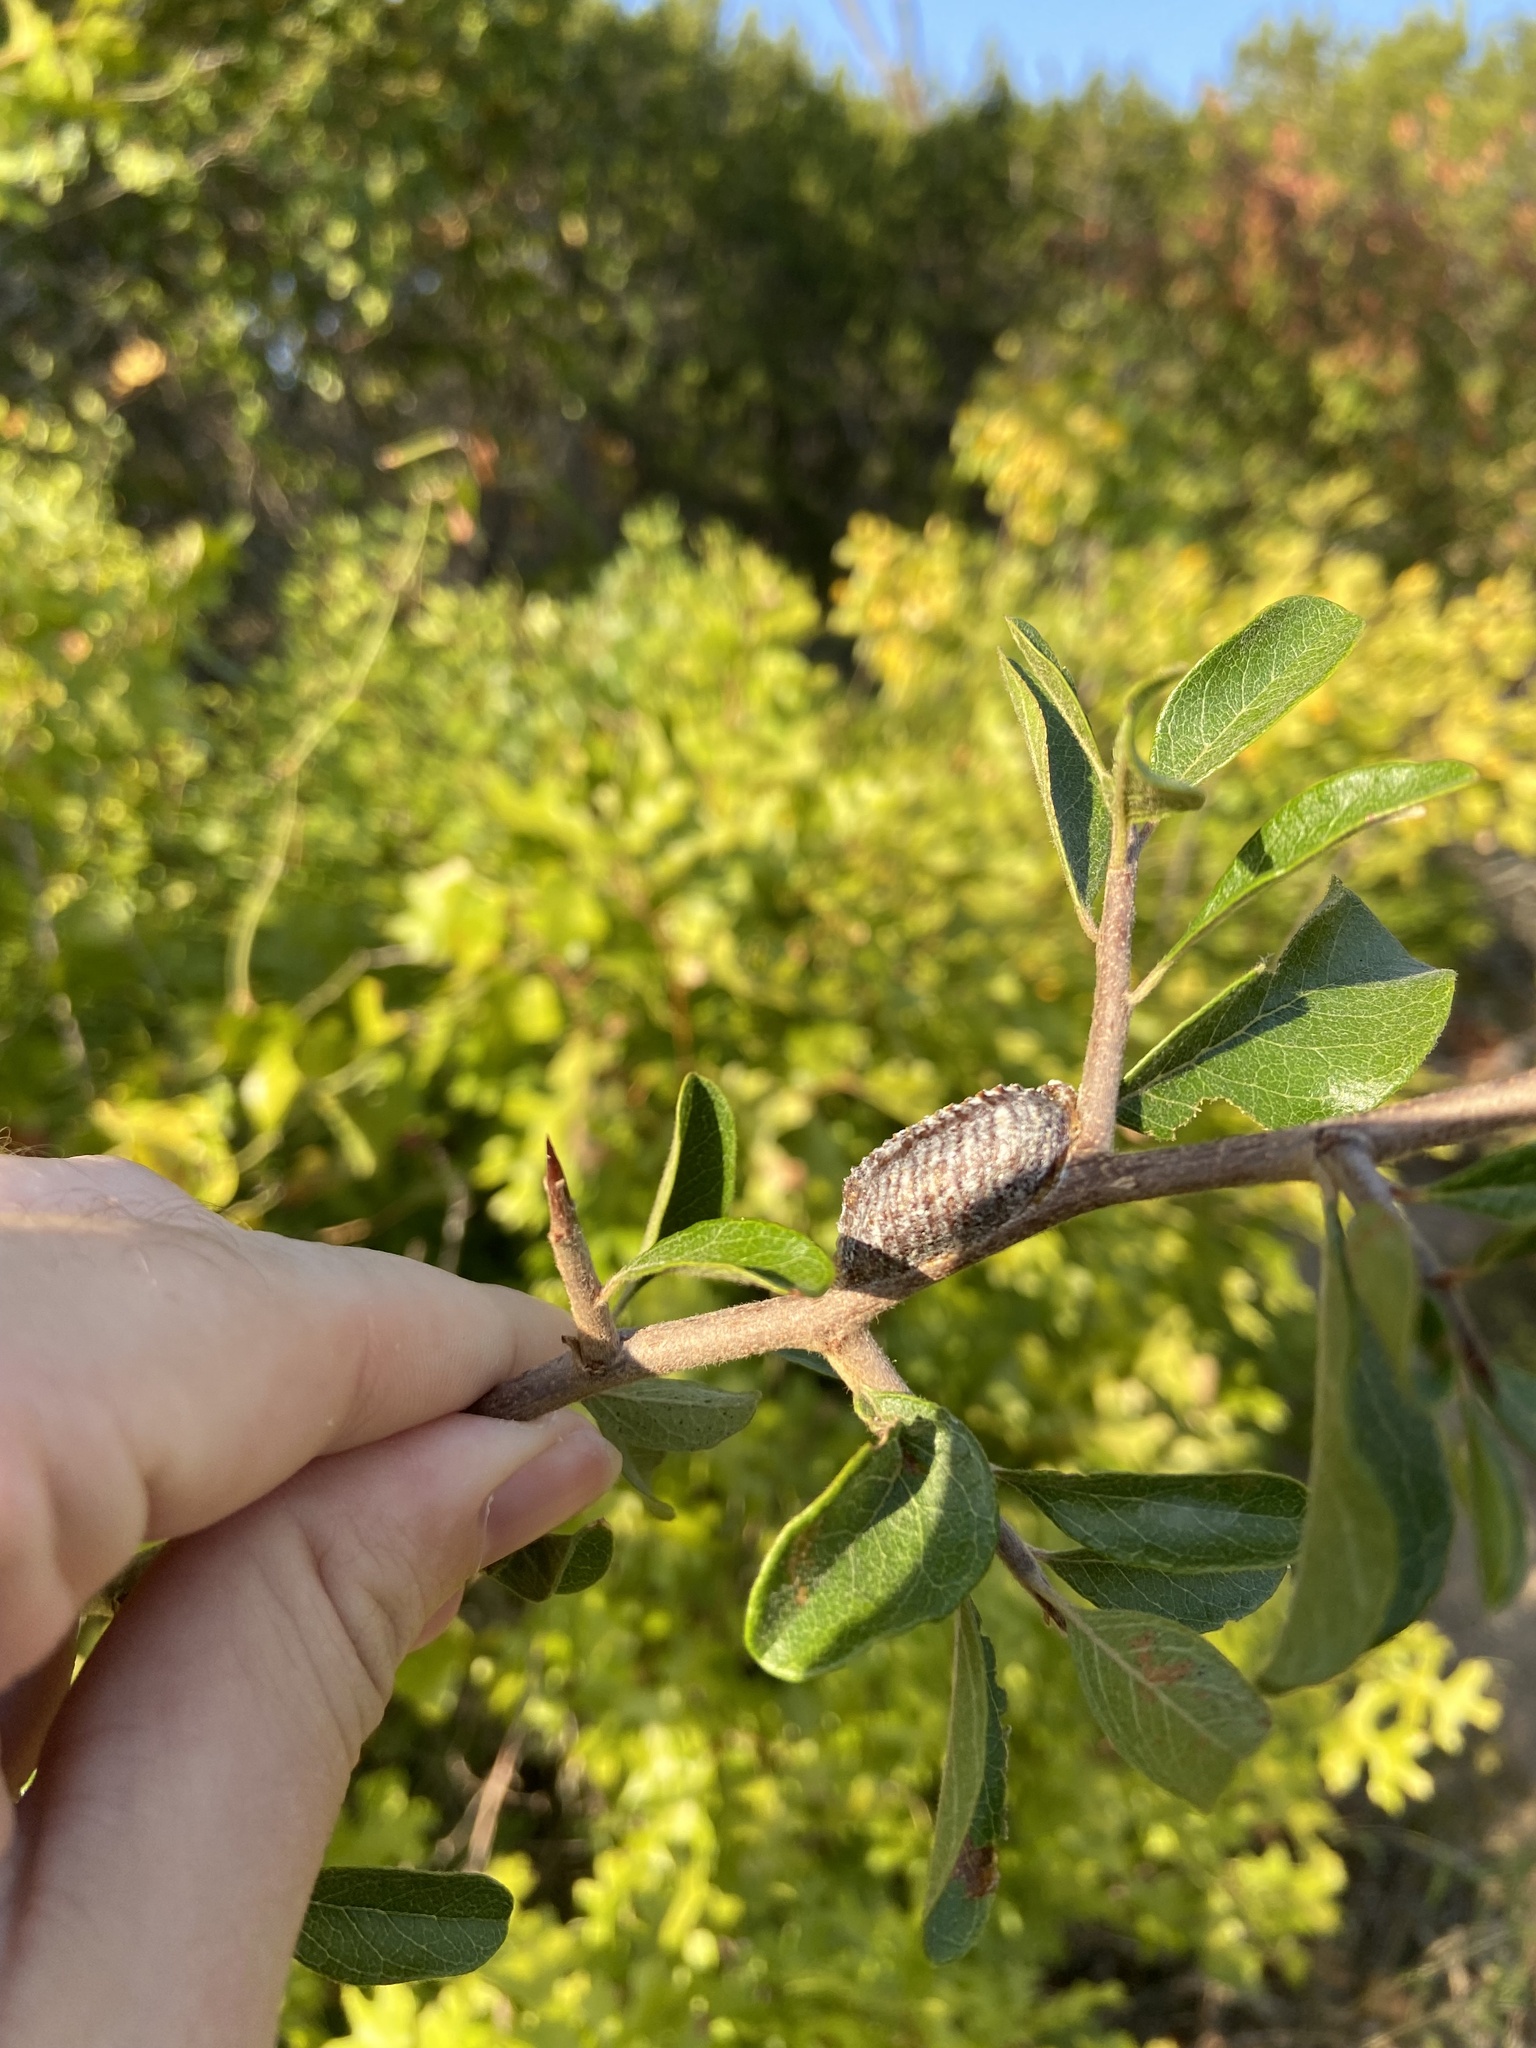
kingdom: Plantae
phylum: Tracheophyta
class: Magnoliopsida
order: Ericales
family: Sapotaceae
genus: Sideroxylon
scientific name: Sideroxylon lanuginosum
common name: Chittamwood
